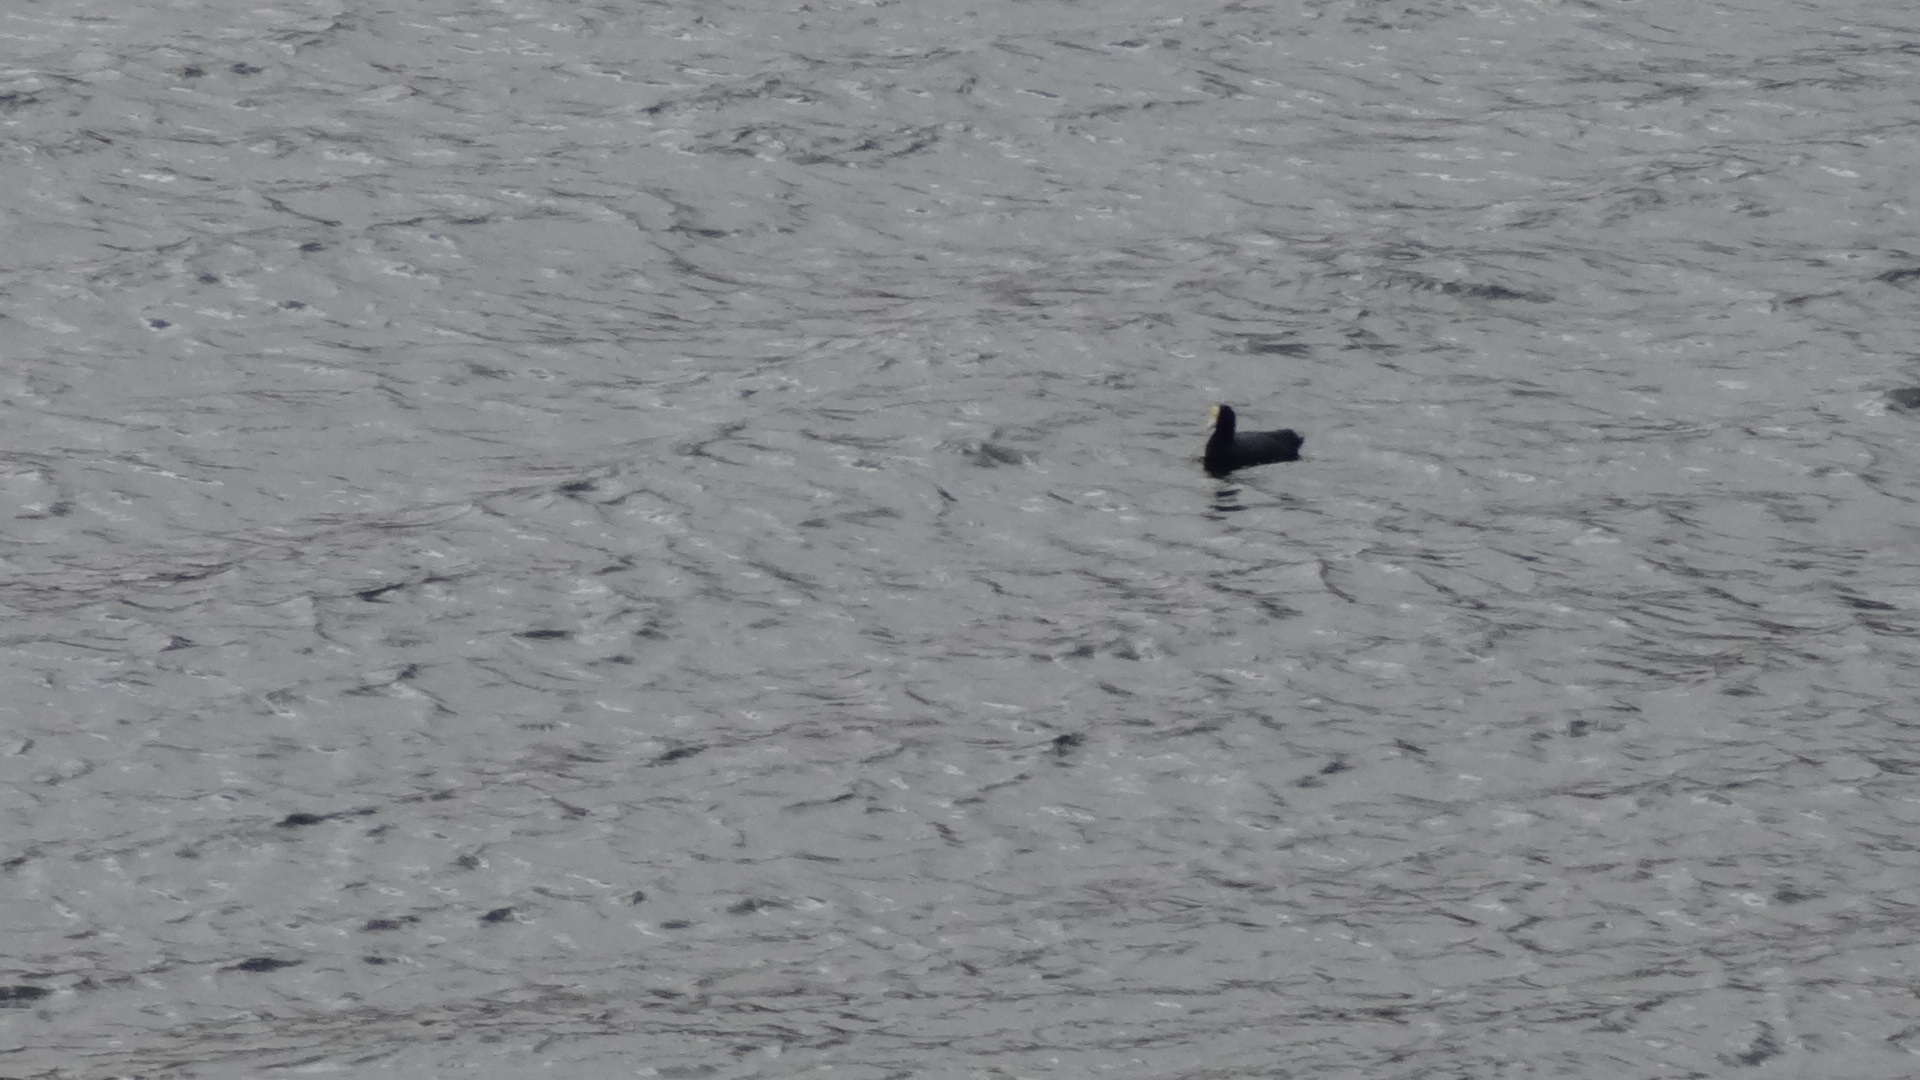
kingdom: Animalia
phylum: Chordata
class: Aves
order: Gruiformes
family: Rallidae
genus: Fulica
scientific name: Fulica ardesiaca
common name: Andean coot
